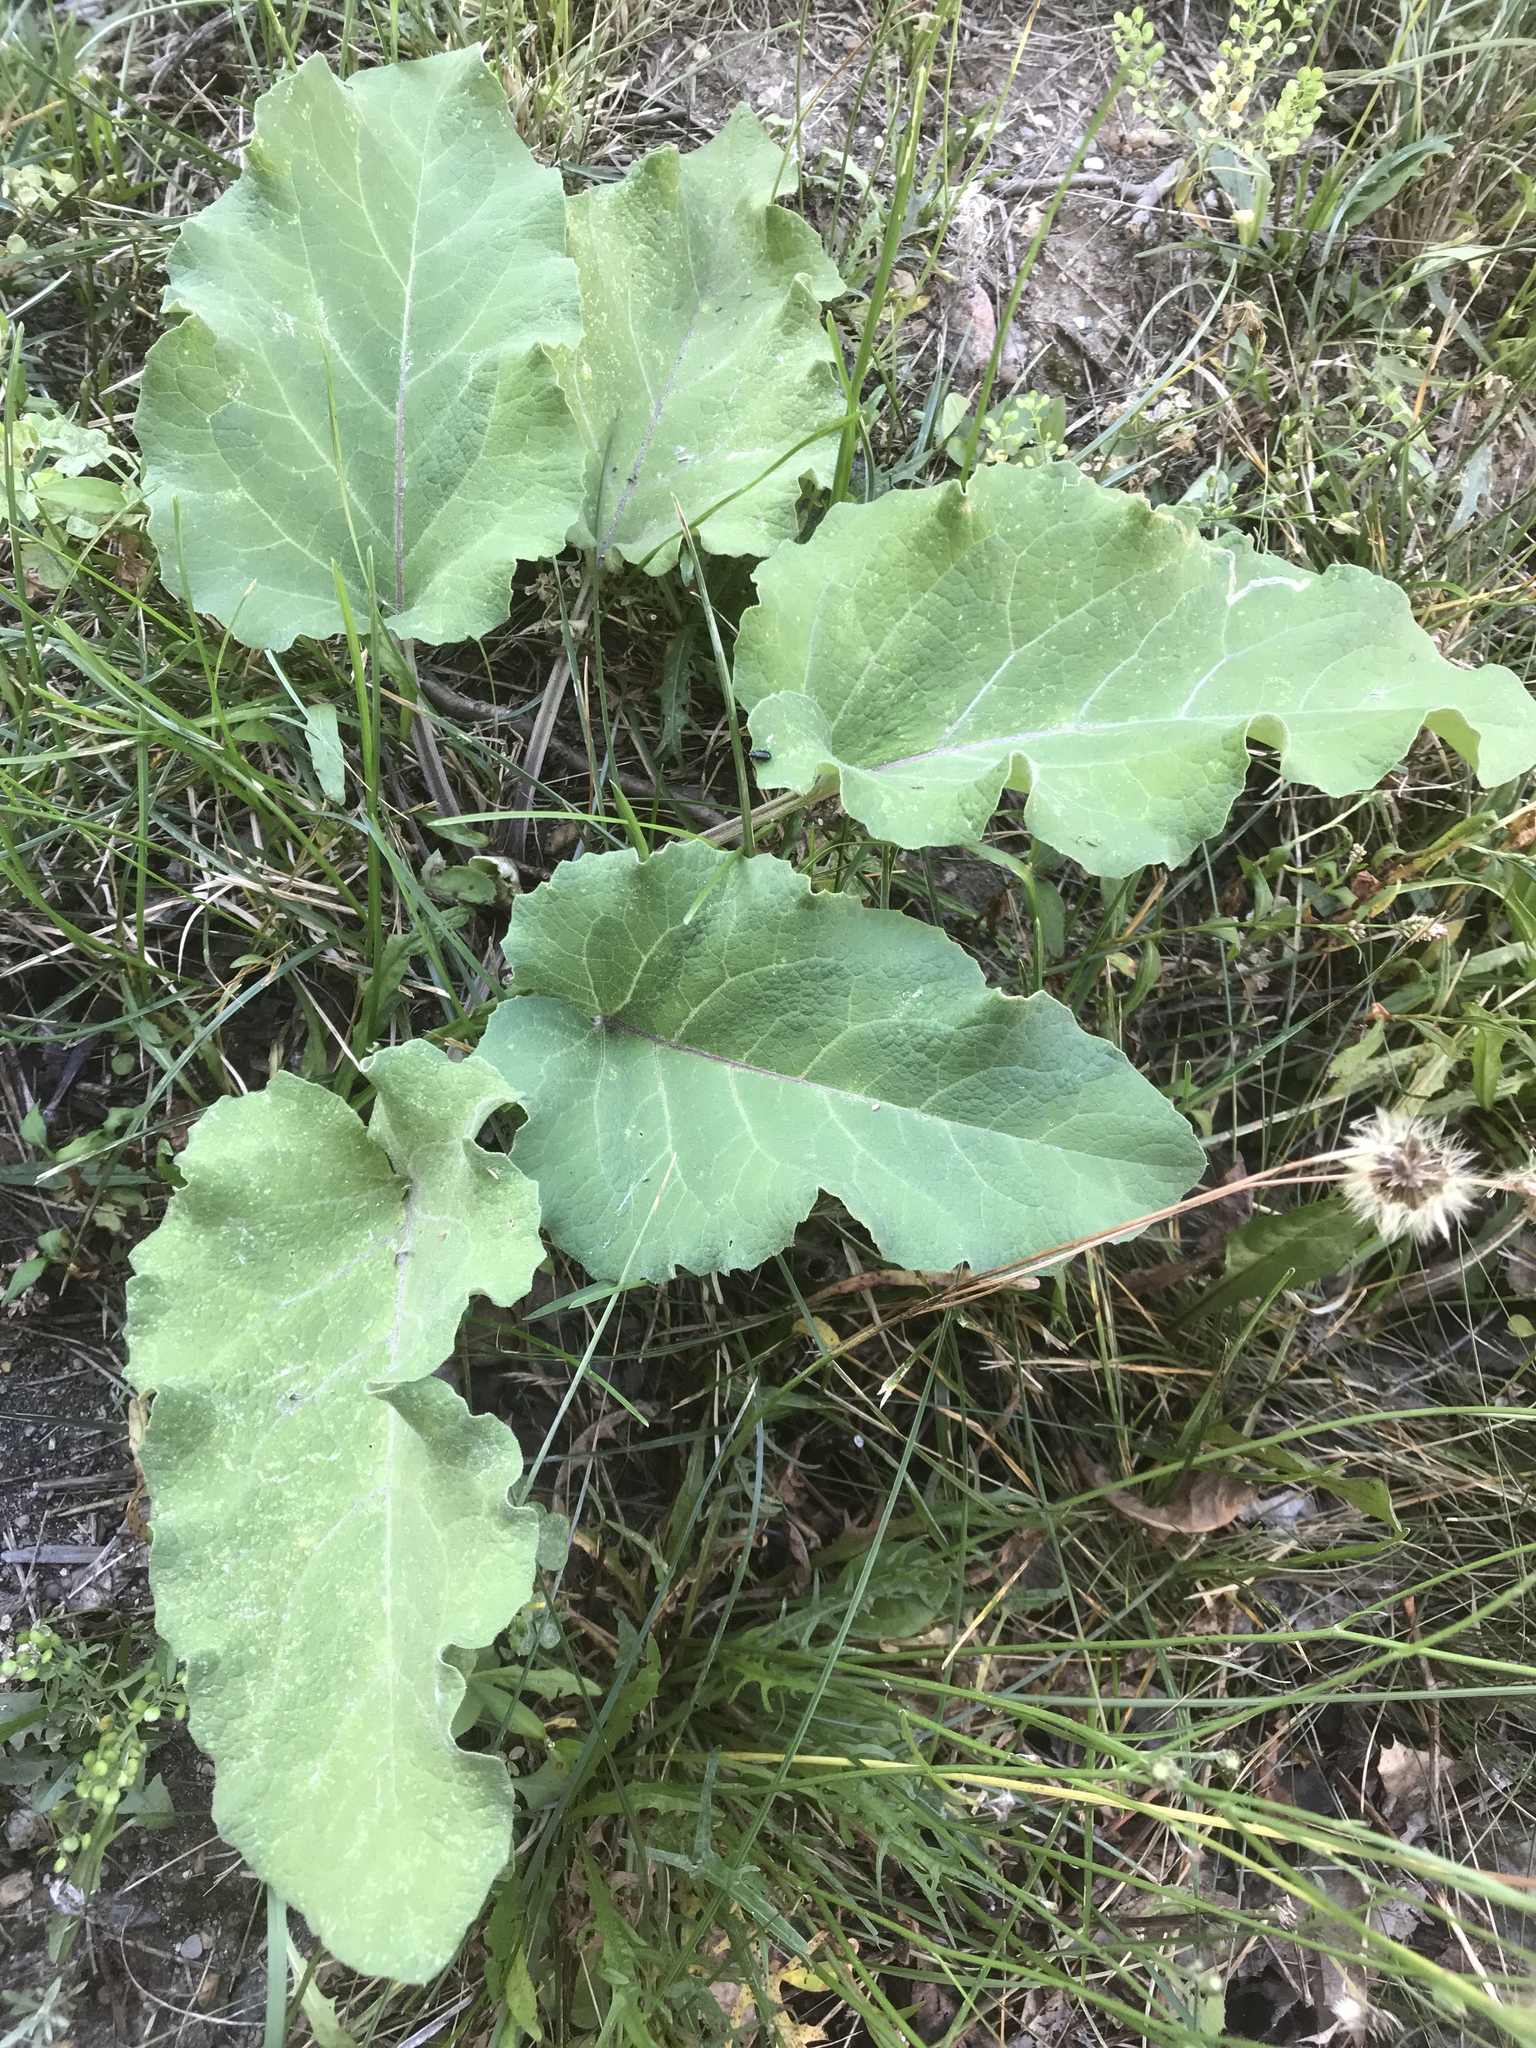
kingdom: Plantae
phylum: Tracheophyta
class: Magnoliopsida
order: Asterales
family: Asteraceae
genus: Arctium
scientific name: Arctium minus
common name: Lesser burdock
